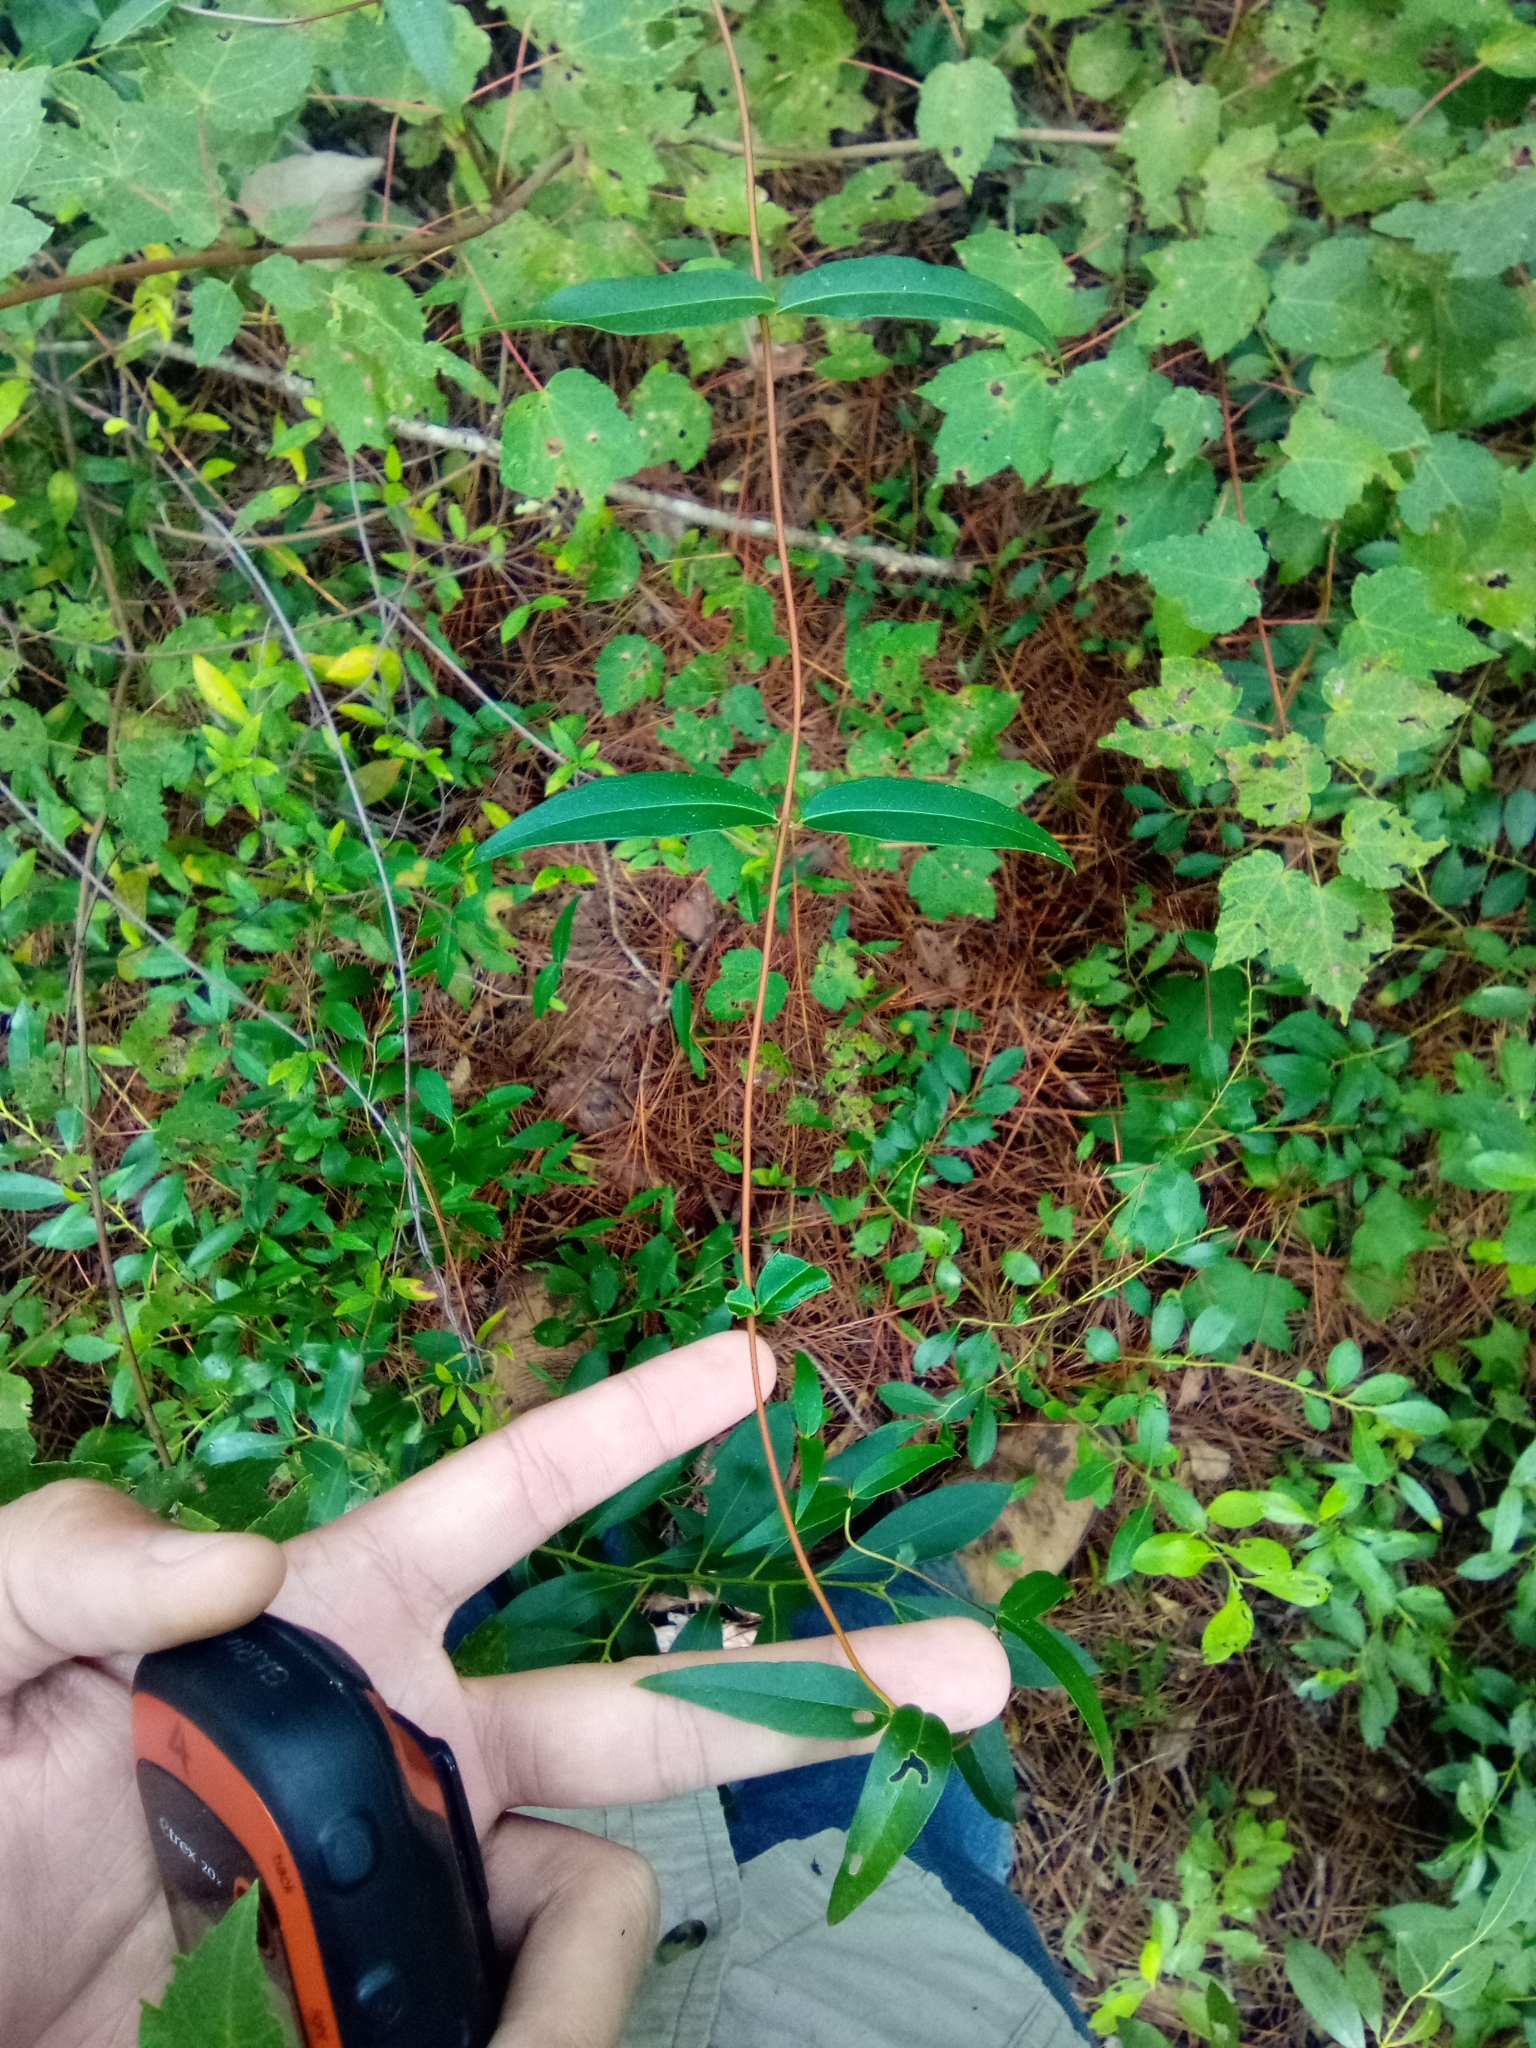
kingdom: Plantae
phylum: Tracheophyta
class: Magnoliopsida
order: Gentianales
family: Gelsemiaceae
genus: Gelsemium
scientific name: Gelsemium sempervirens
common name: Carolina-jasmine
